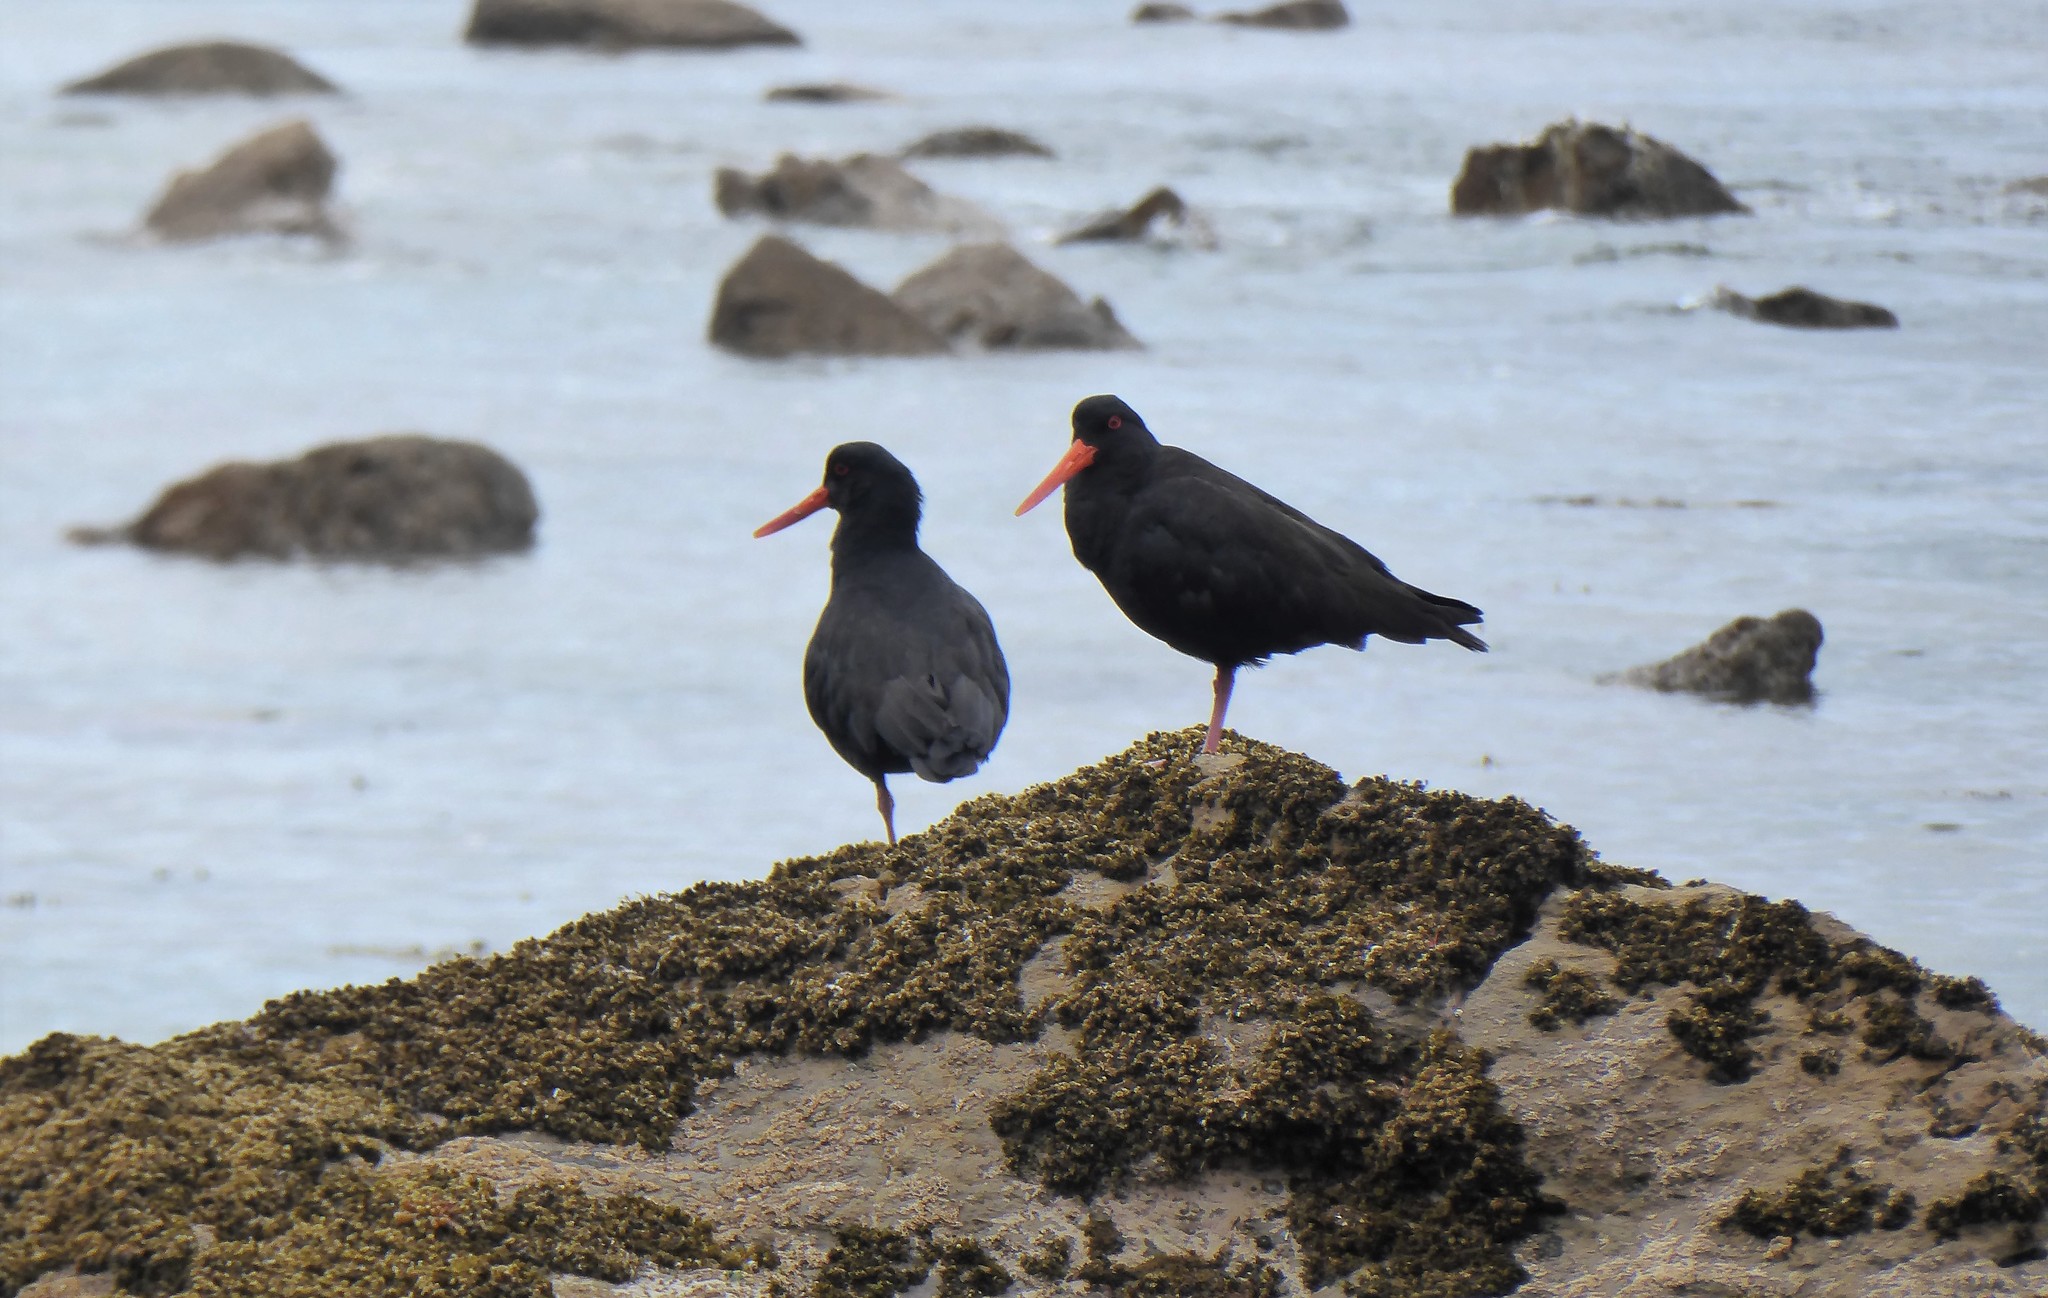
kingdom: Animalia
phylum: Chordata
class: Aves
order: Charadriiformes
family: Haematopodidae
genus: Haematopus
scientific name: Haematopus unicolor
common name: Variable oystercatcher
